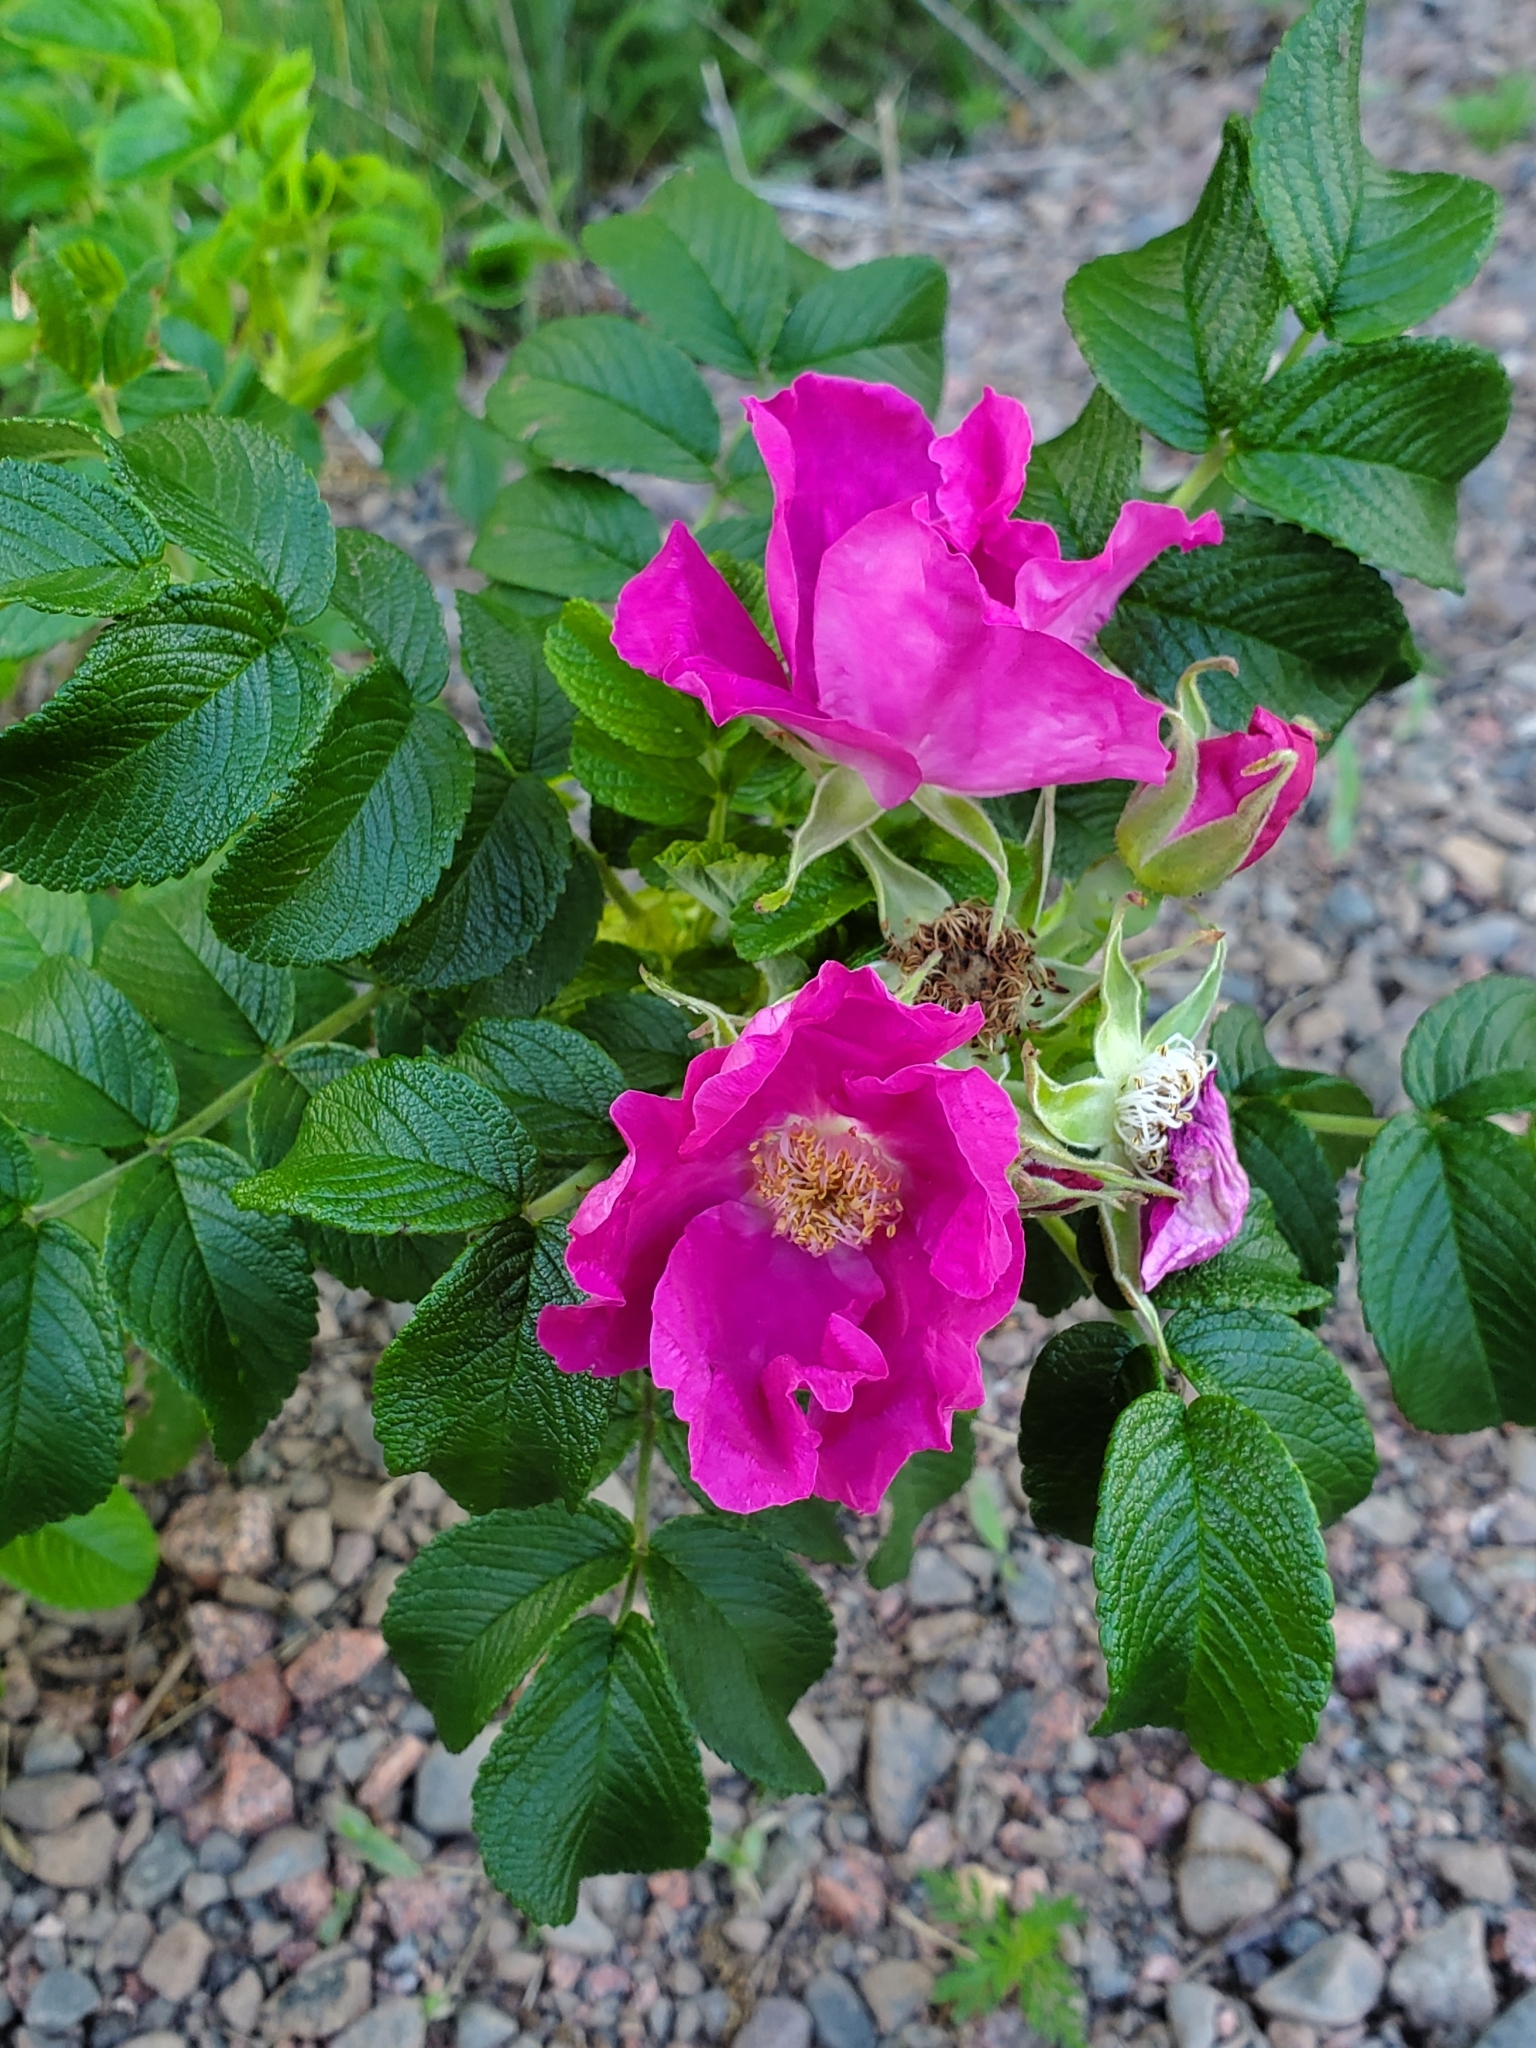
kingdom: Plantae
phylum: Tracheophyta
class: Magnoliopsida
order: Rosales
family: Rosaceae
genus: Rosa
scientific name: Rosa rugosa
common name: Japanese rose
